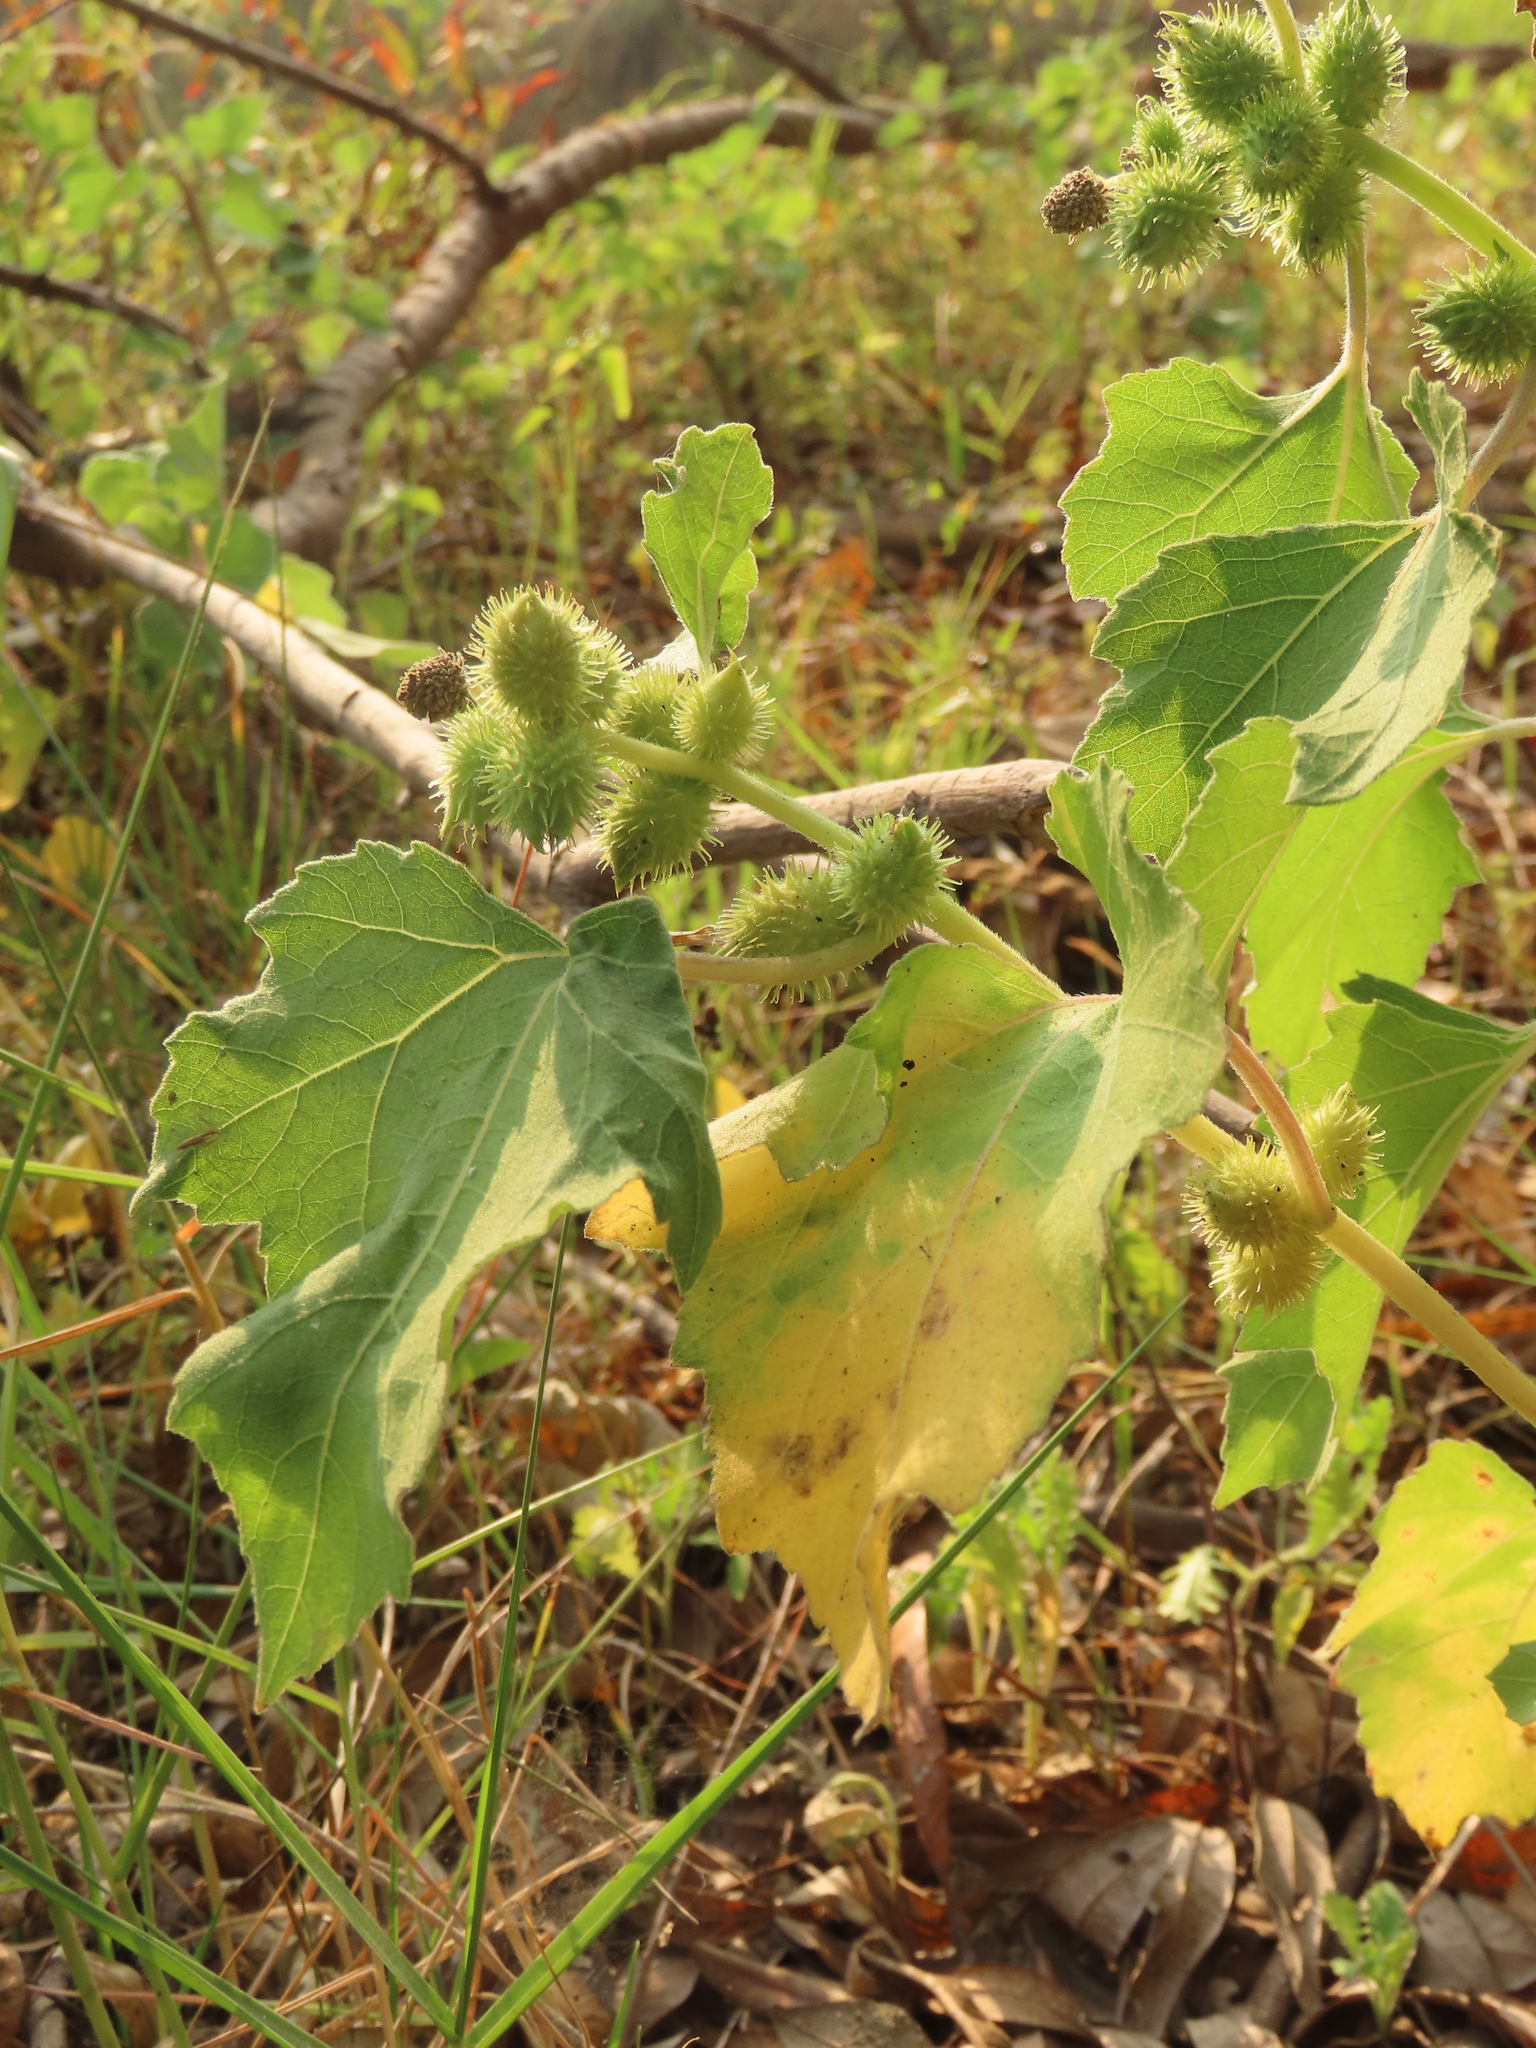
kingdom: Plantae
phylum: Tracheophyta
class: Magnoliopsida
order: Asterales
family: Asteraceae
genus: Xanthium
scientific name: Xanthium strumarium
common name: Rough cocklebur
